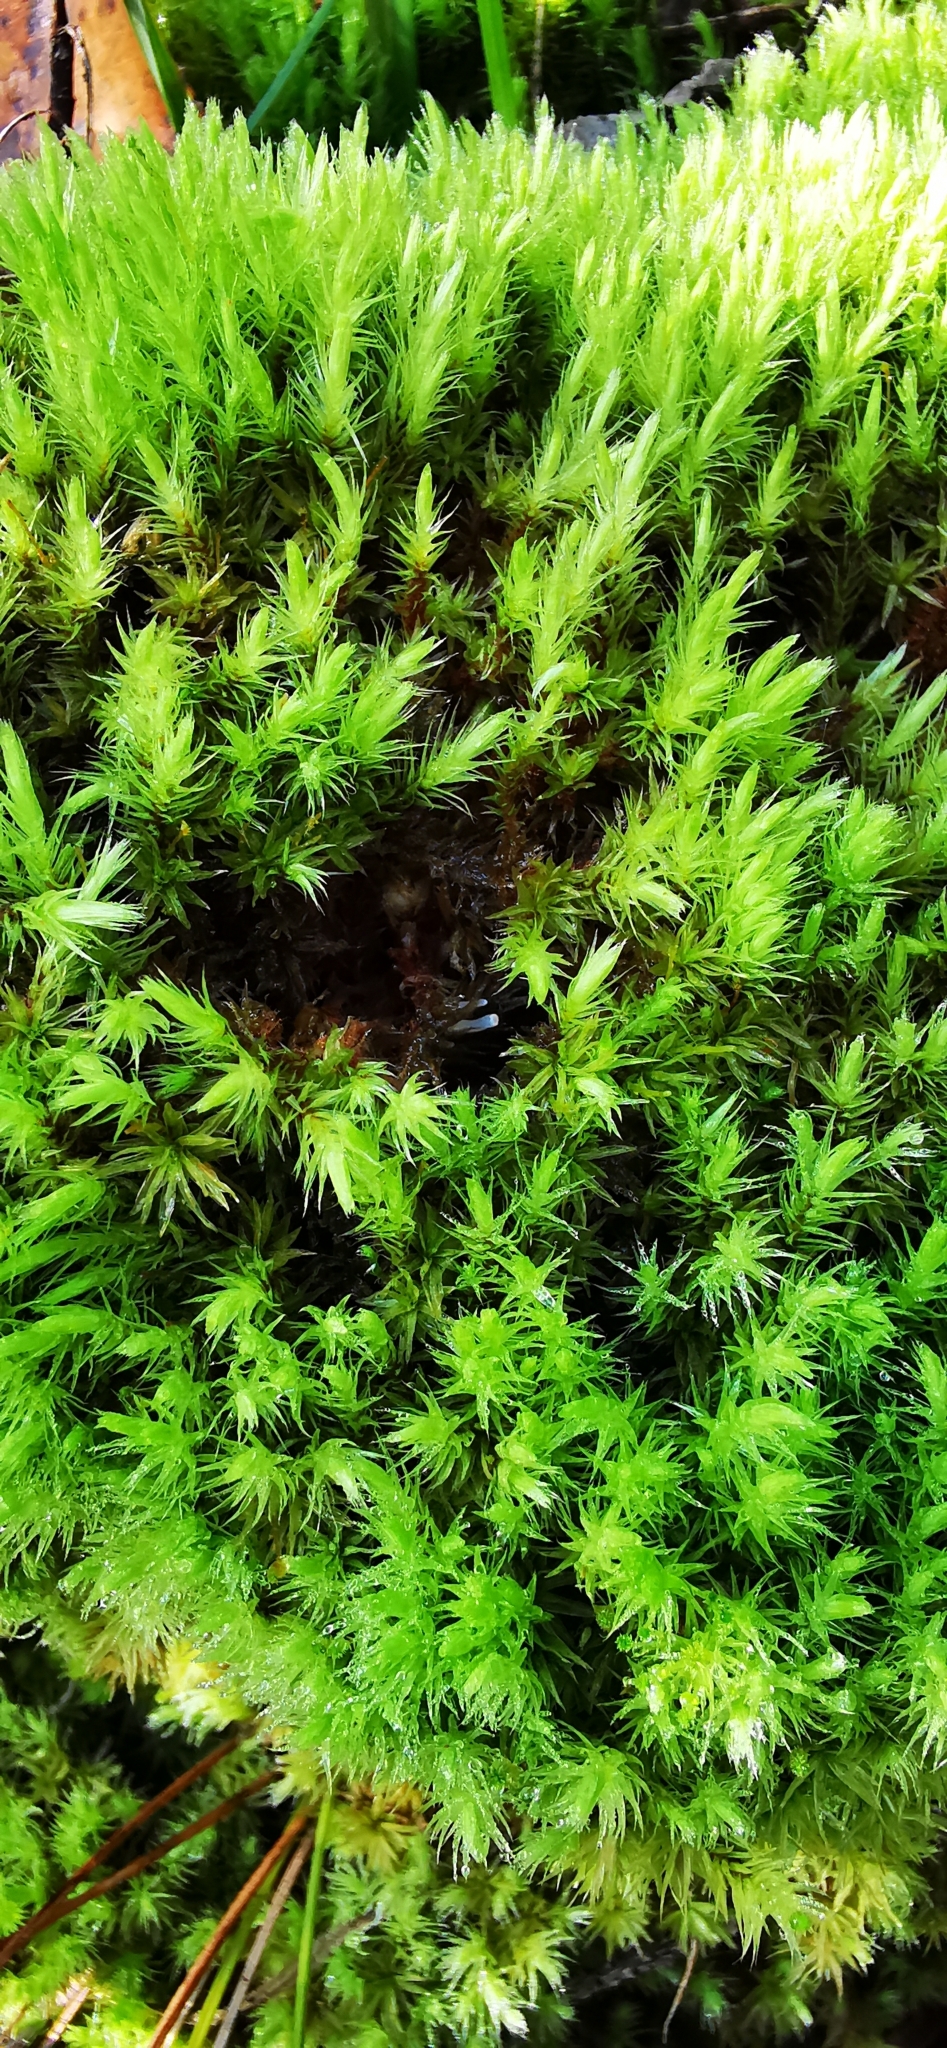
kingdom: Plantae
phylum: Bryophyta
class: Bryopsida
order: Aulacomniales
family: Aulacomniaceae
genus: Aulacomnium
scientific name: Aulacomnium palustre
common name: Bog groove-moss
